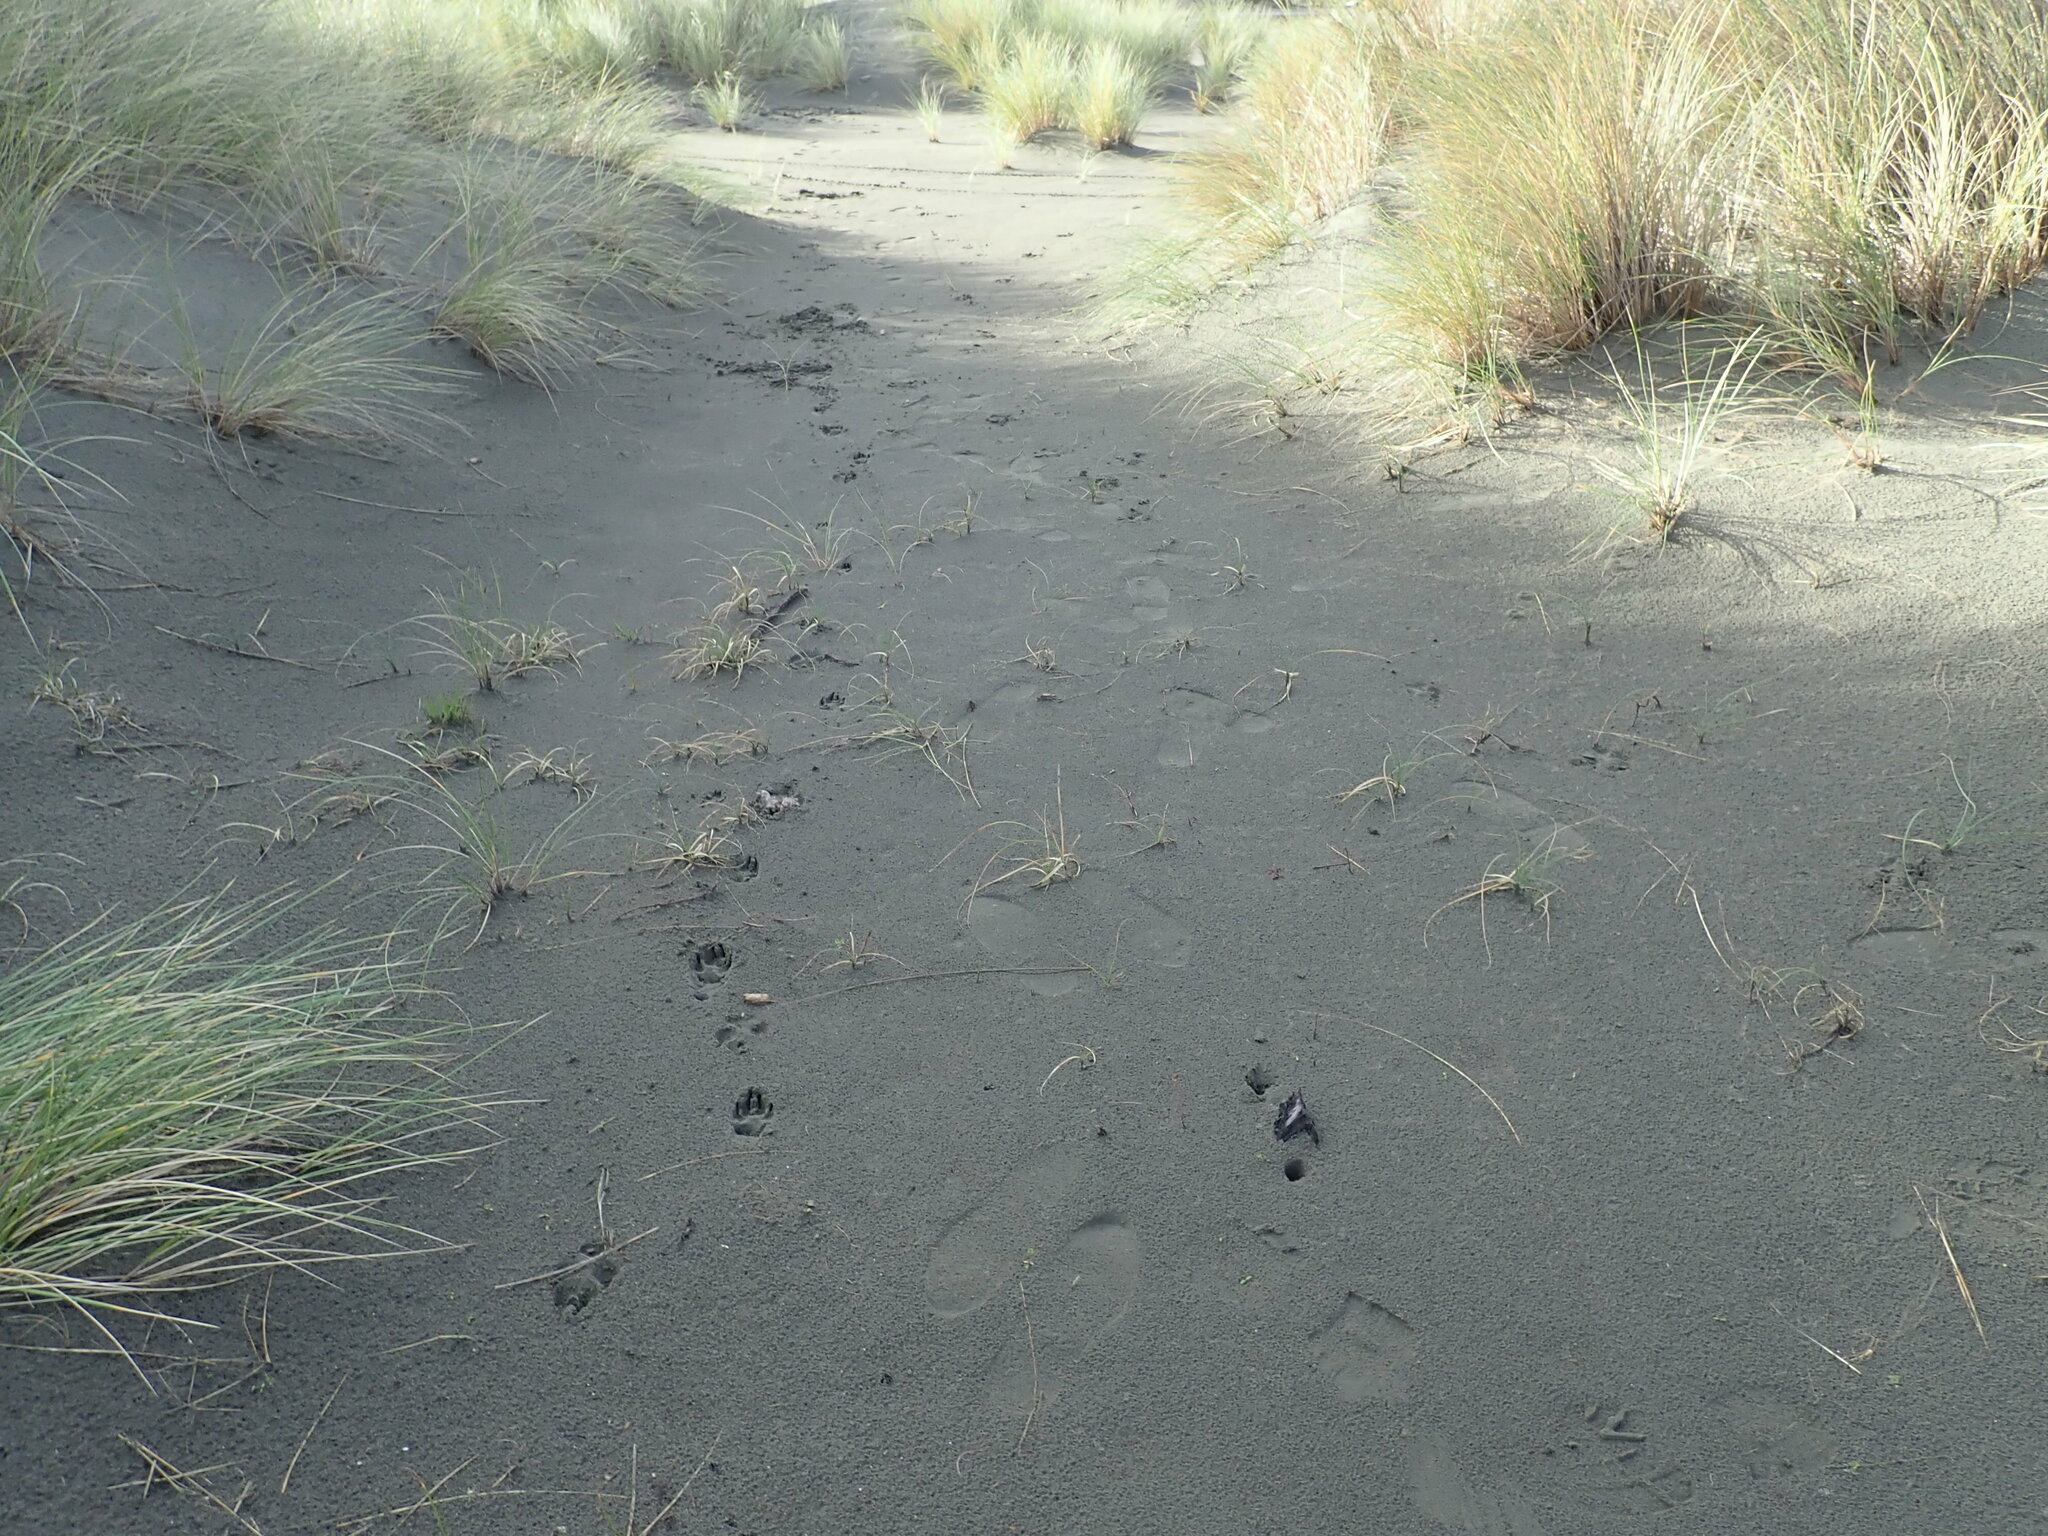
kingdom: Plantae
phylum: Tracheophyta
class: Liliopsida
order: Poales
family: Cyperaceae
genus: Carex
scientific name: Carex pumila
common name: Dwarf sedge
